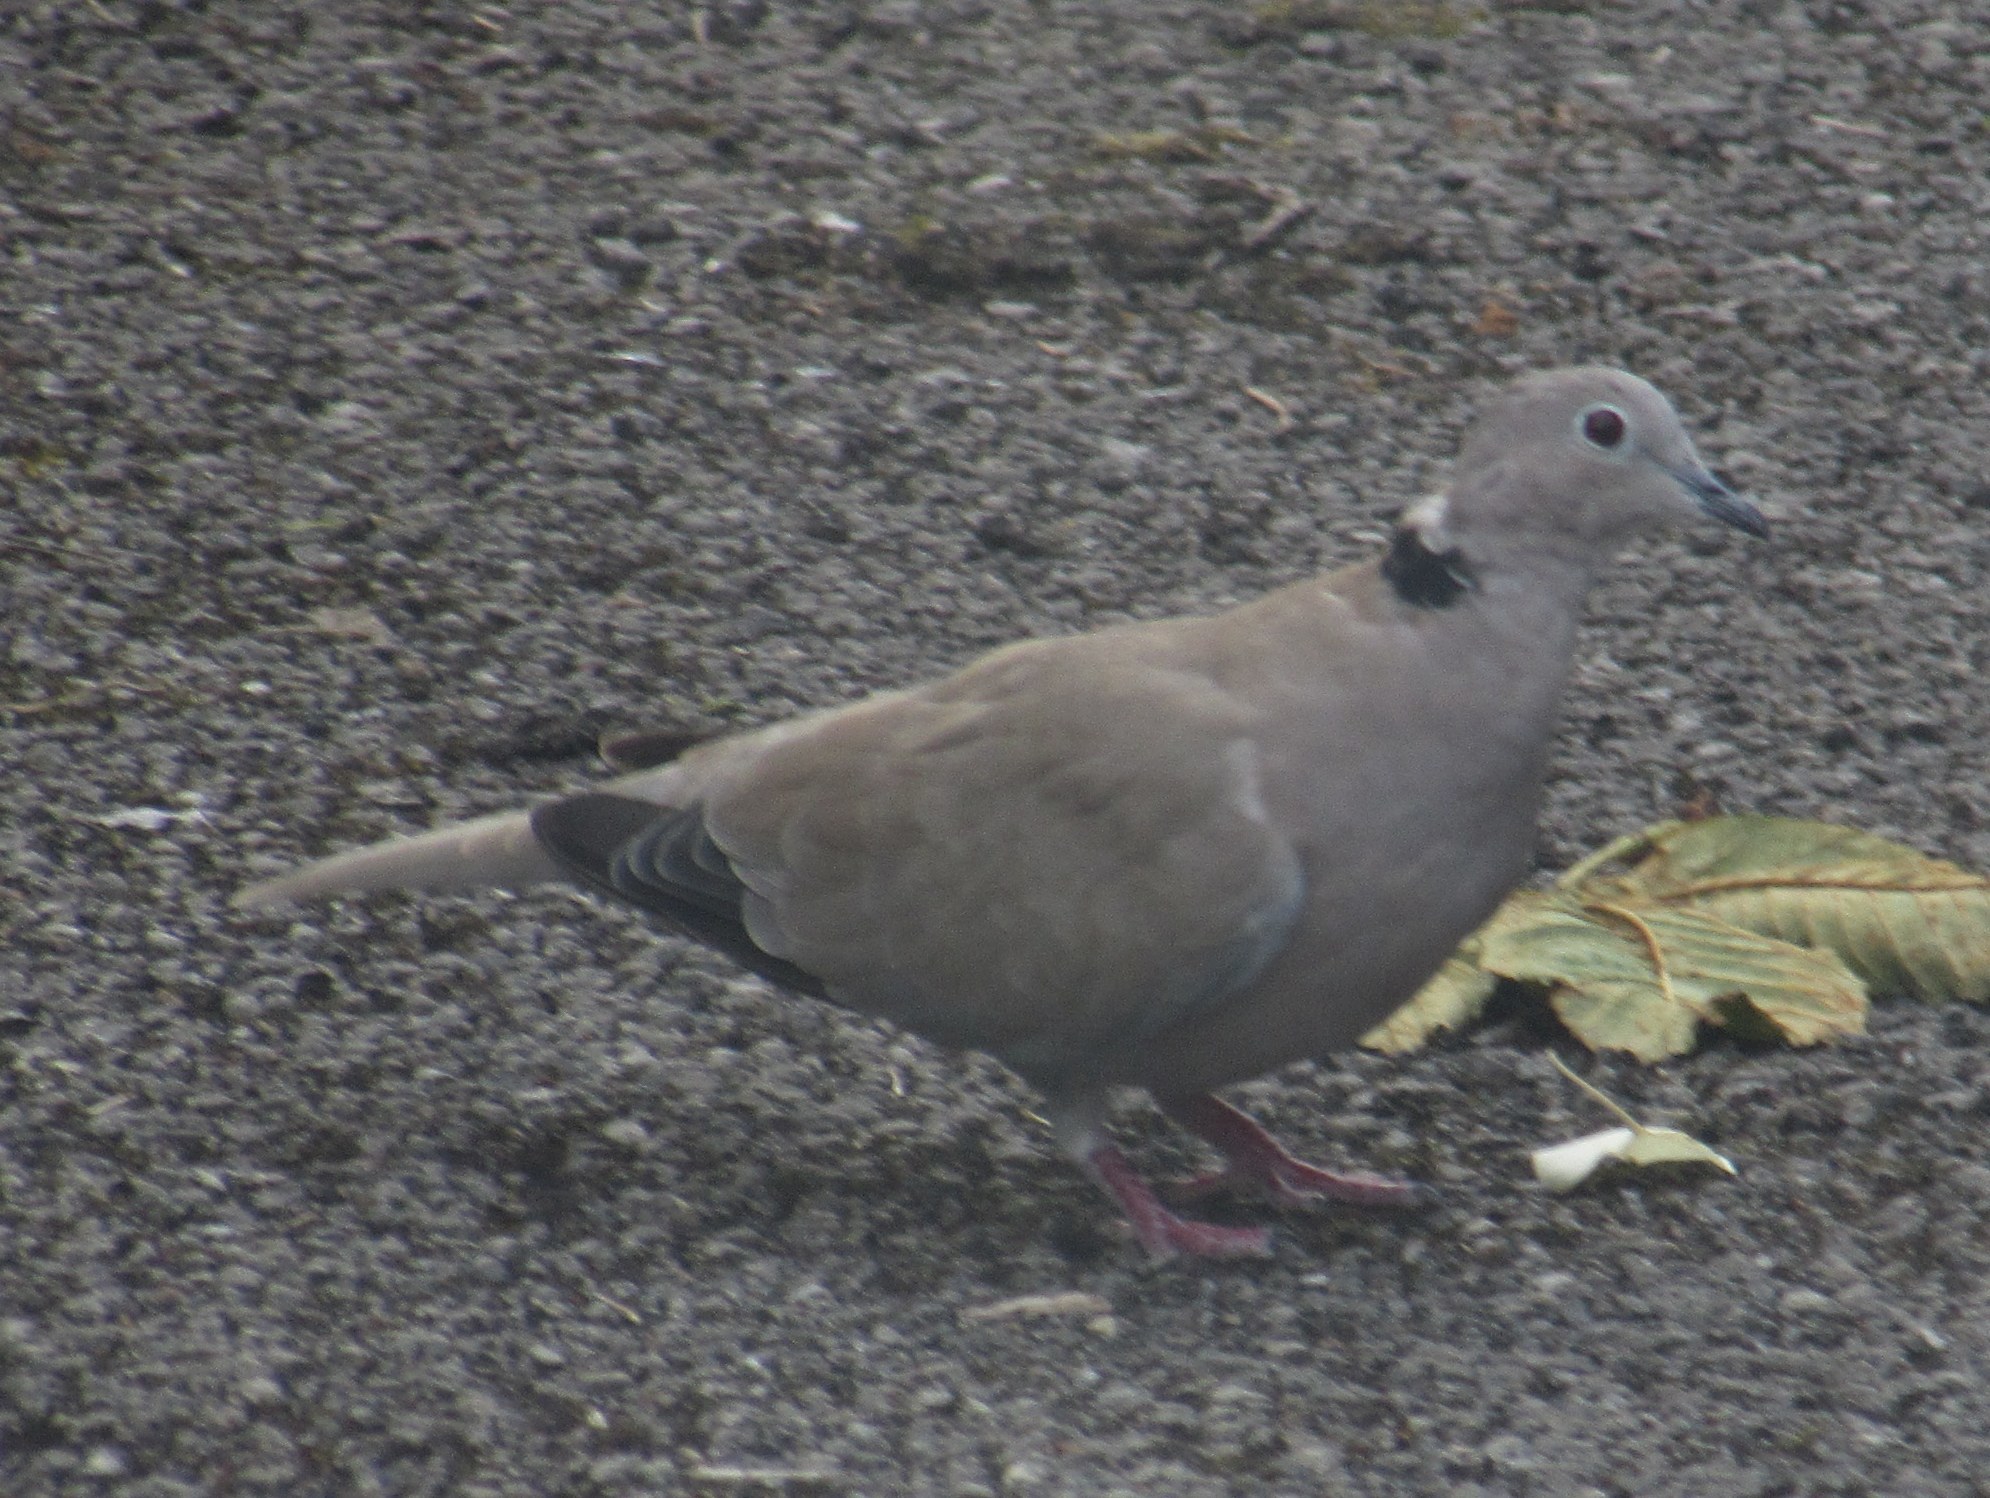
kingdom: Animalia
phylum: Chordata
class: Aves
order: Columbiformes
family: Columbidae
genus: Streptopelia
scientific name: Streptopelia decaocto
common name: Eurasian collared dove
